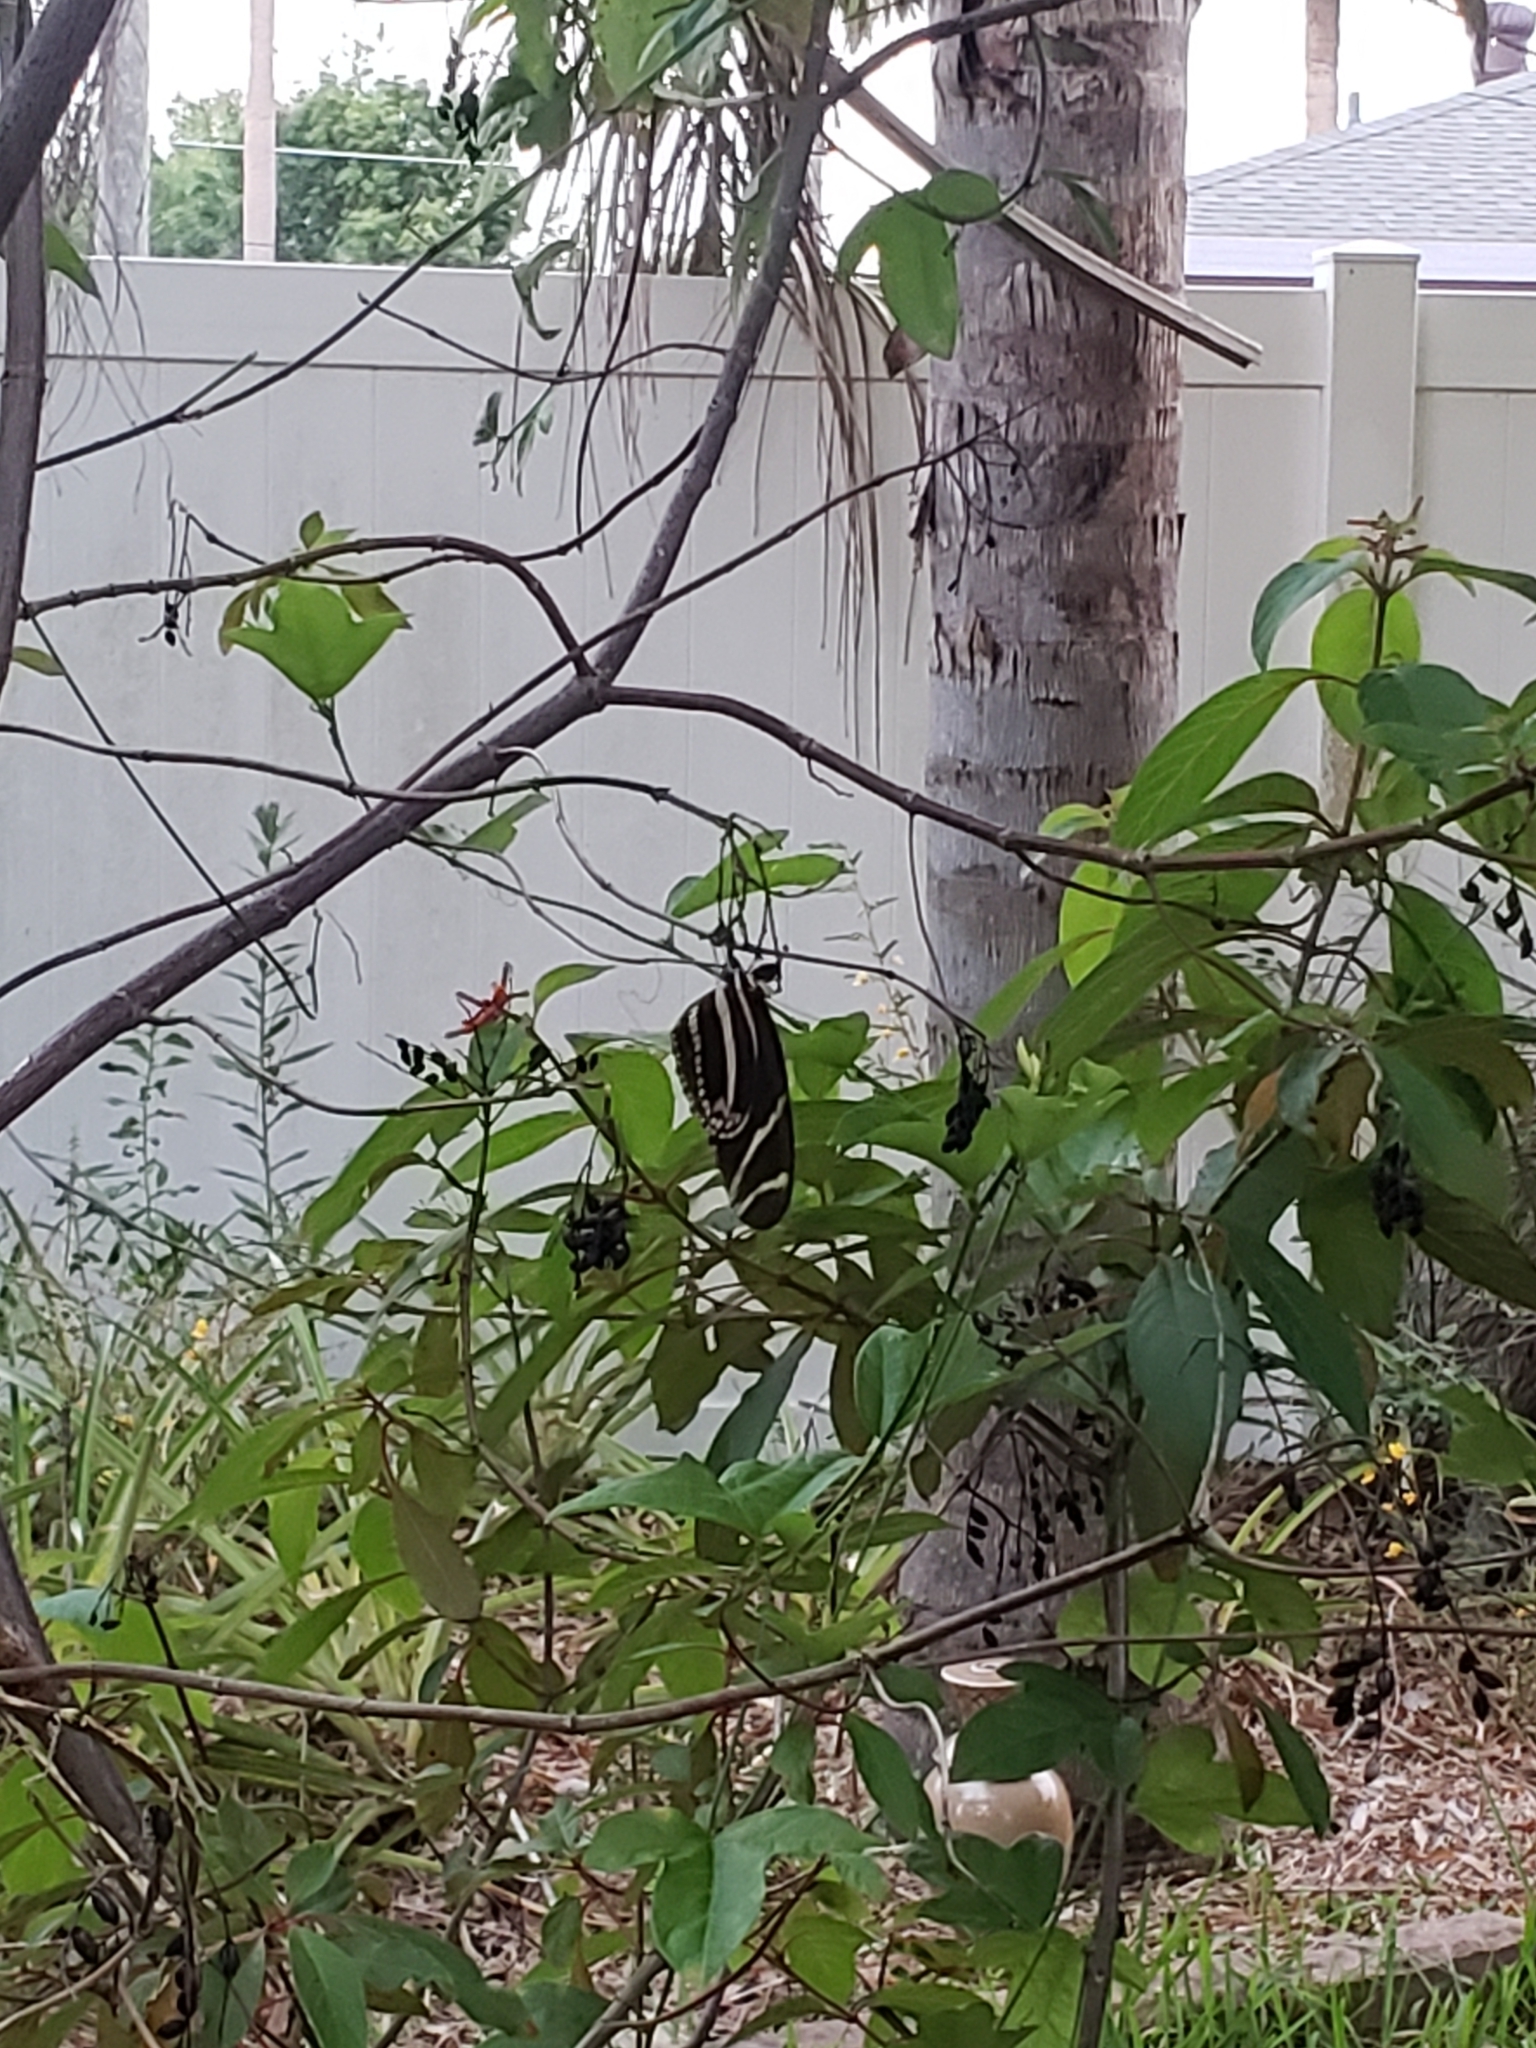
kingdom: Animalia
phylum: Arthropoda
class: Insecta
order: Lepidoptera
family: Nymphalidae
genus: Heliconius
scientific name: Heliconius charithonia
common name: Zebra long wing
